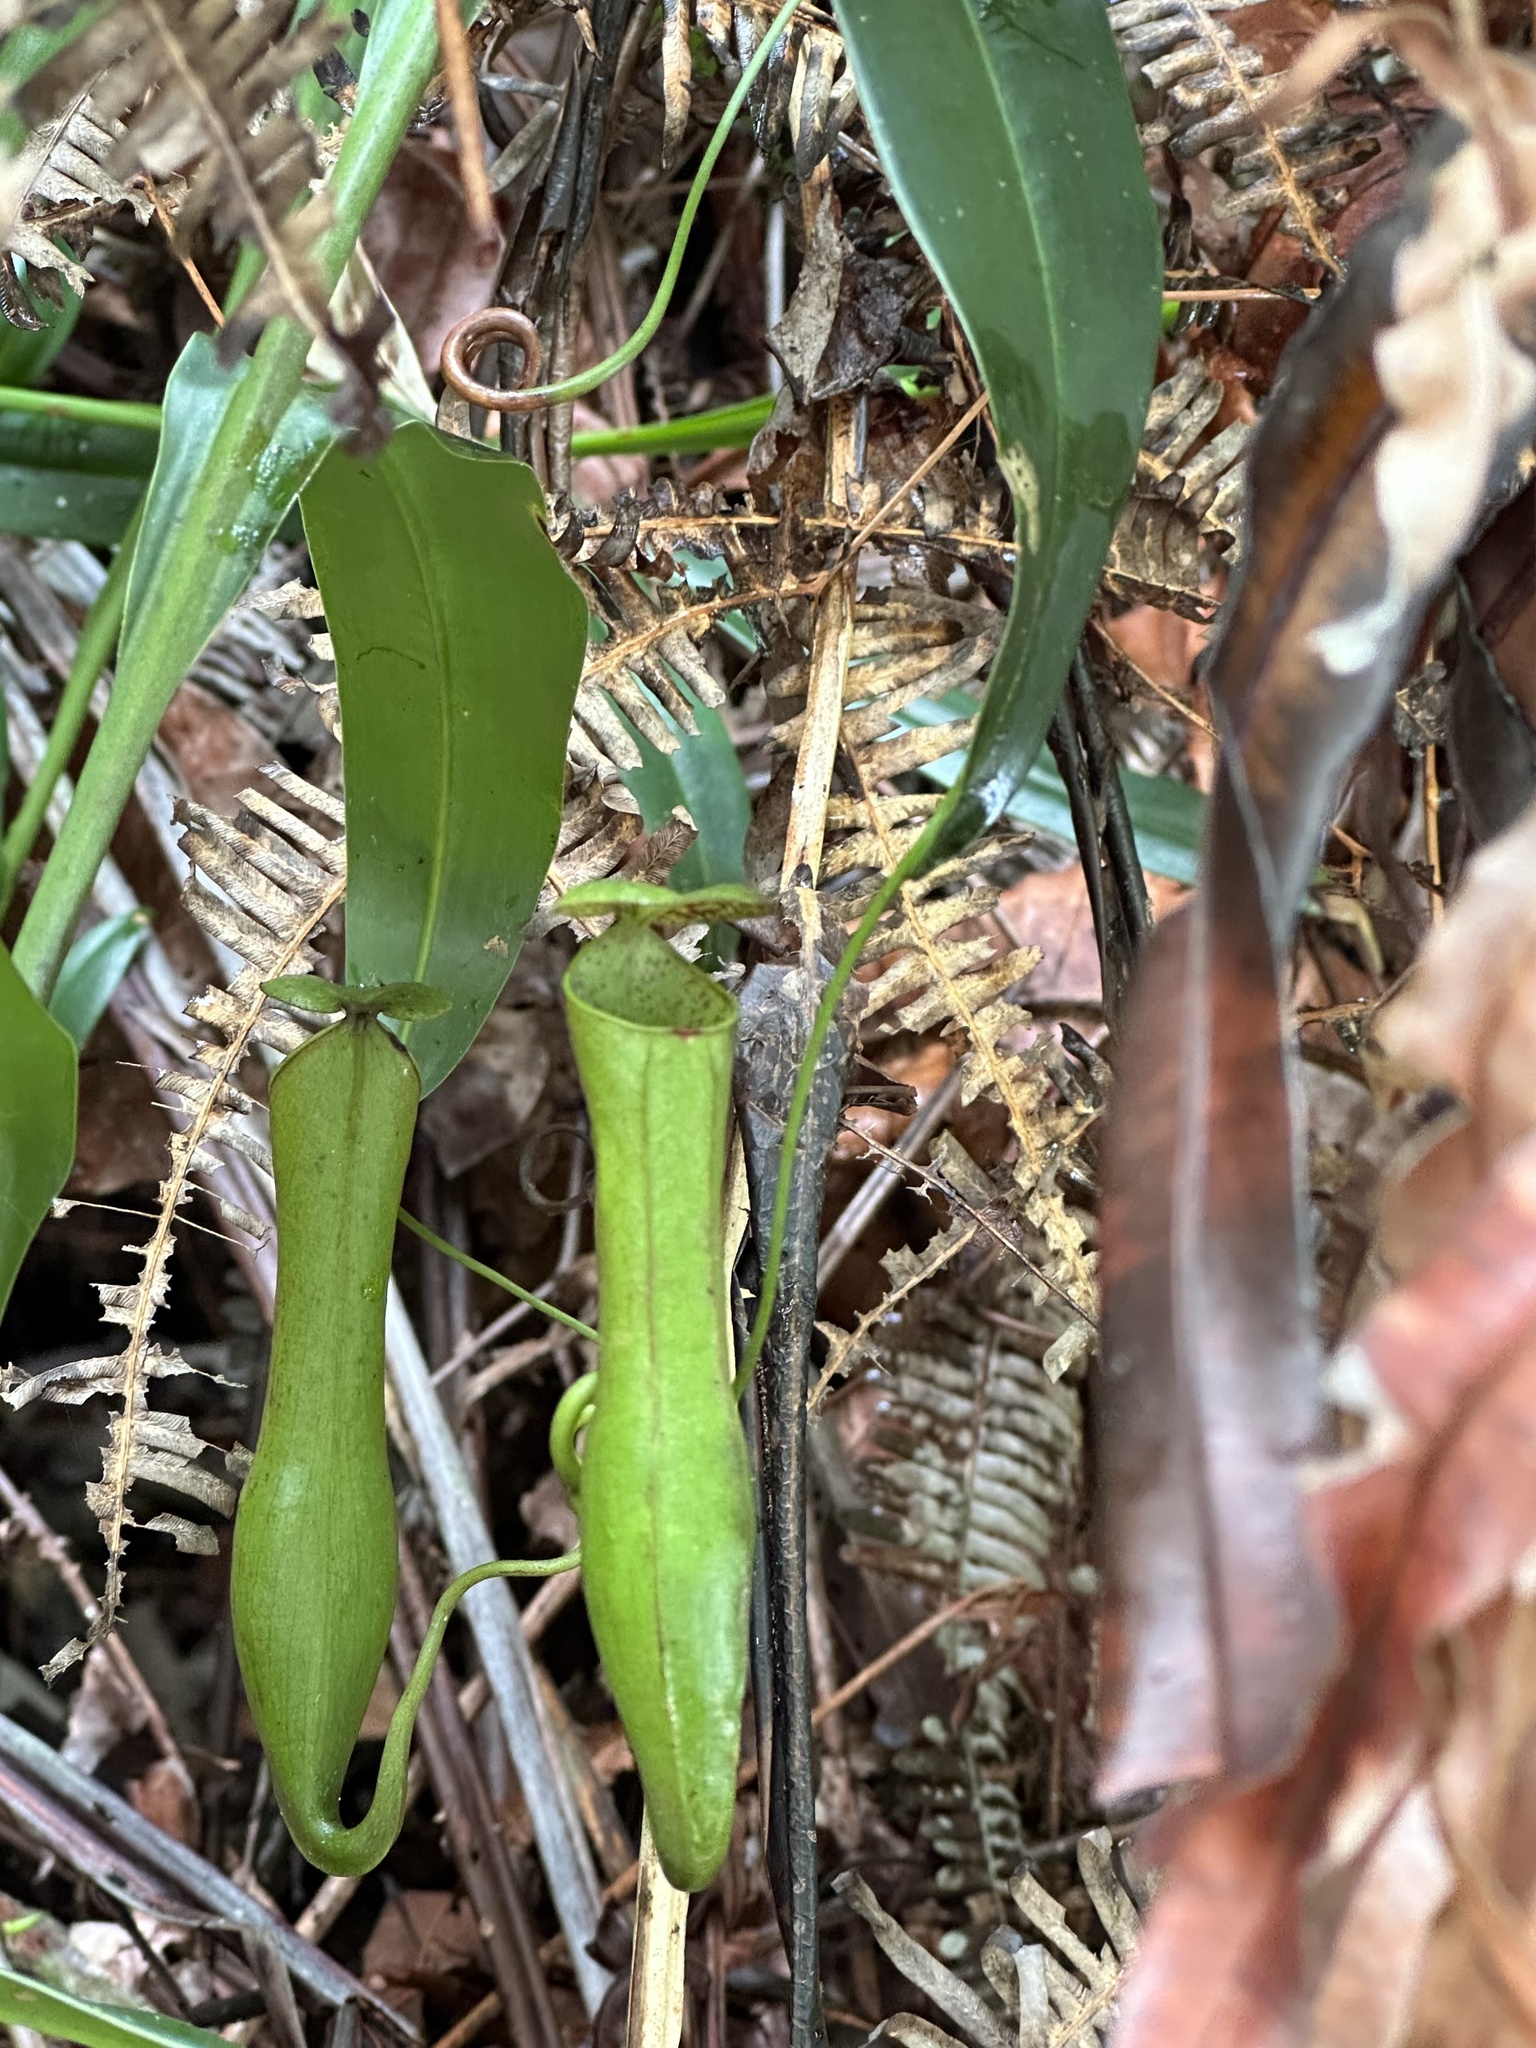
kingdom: Plantae
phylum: Tracheophyta
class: Magnoliopsida
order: Caryophyllales
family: Nepenthaceae
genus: Nepenthes
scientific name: Nepenthes gracilis
